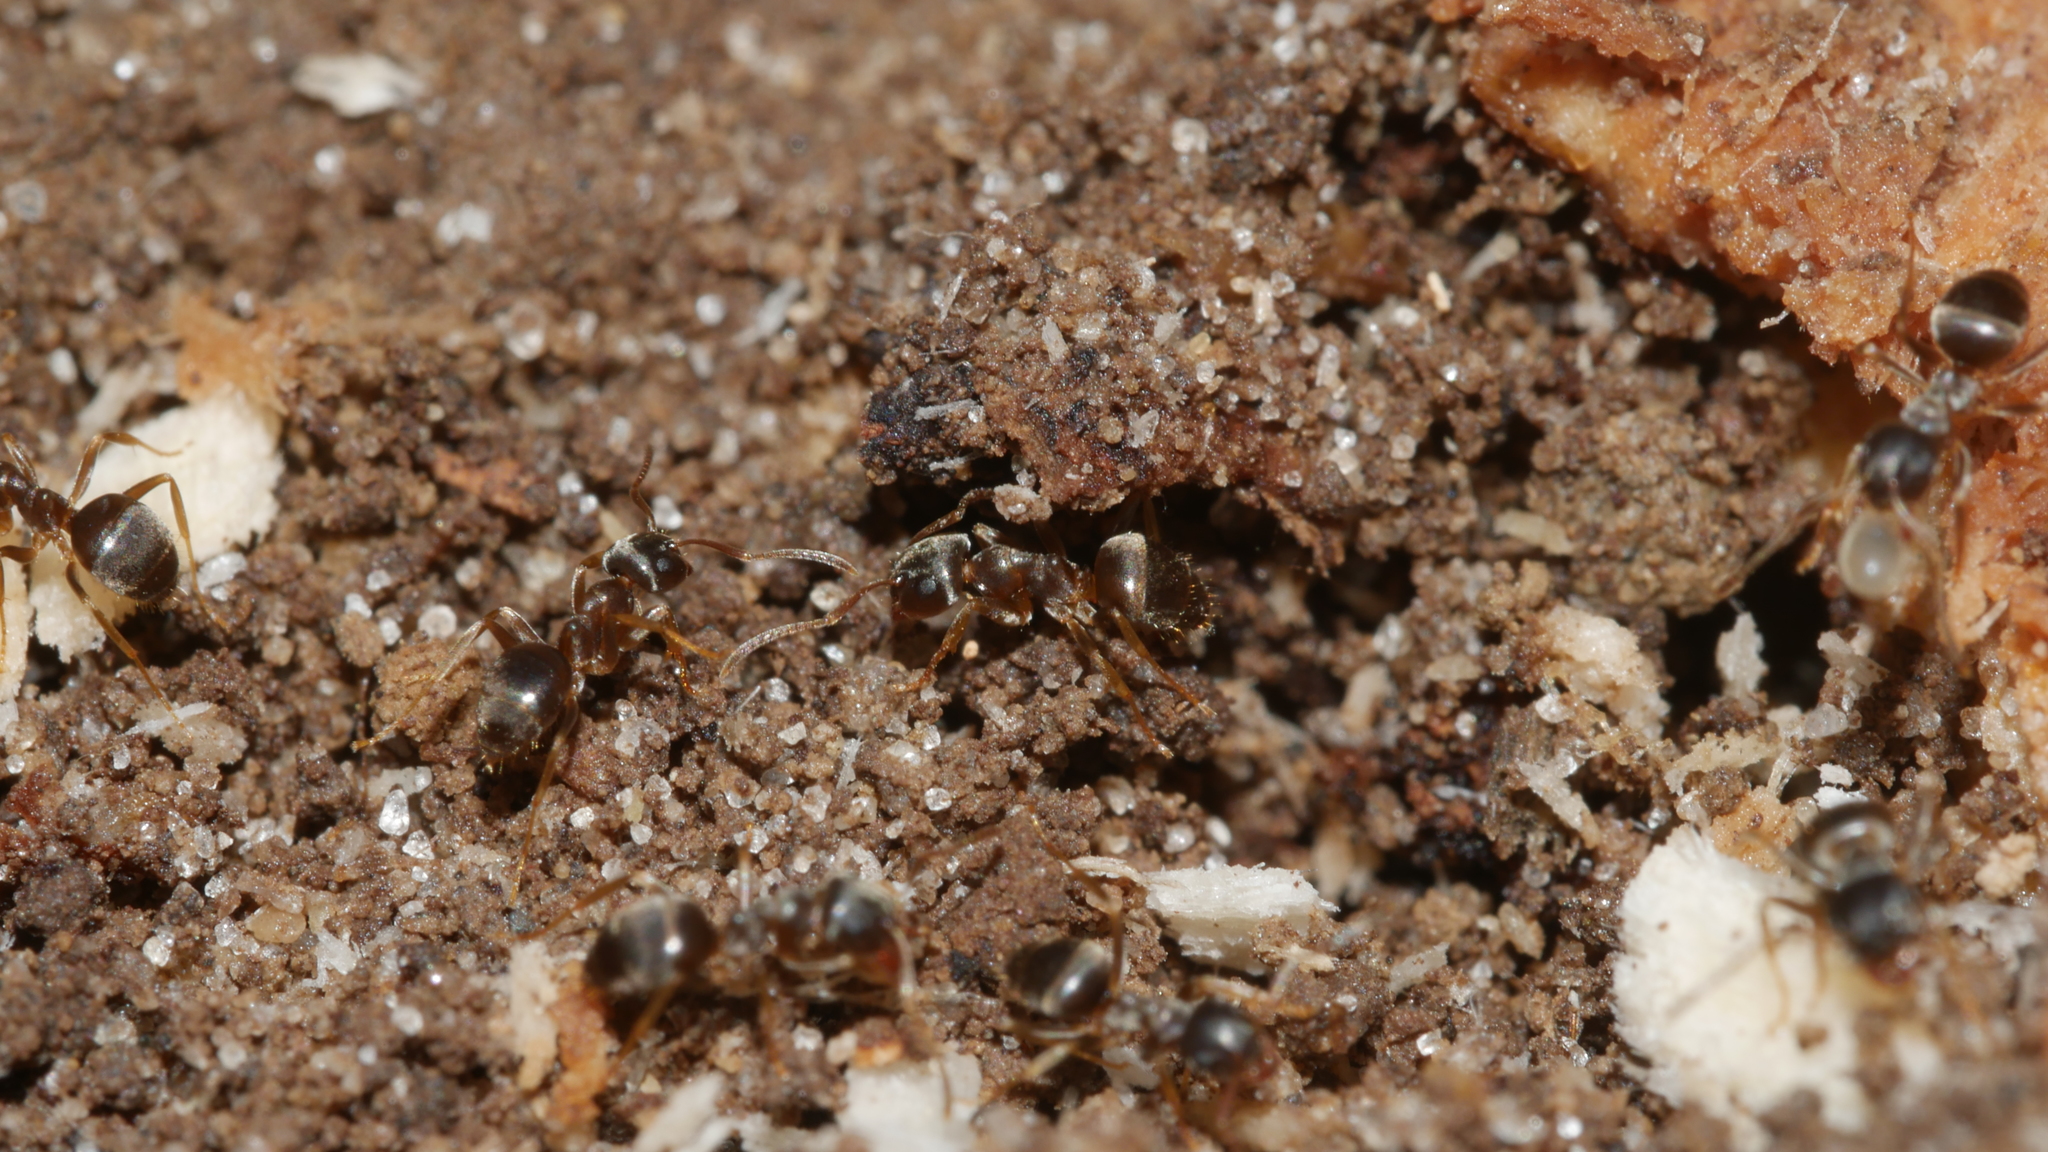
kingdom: Animalia
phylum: Arthropoda
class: Insecta
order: Hymenoptera
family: Formicidae
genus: Lasius
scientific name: Lasius americanus
